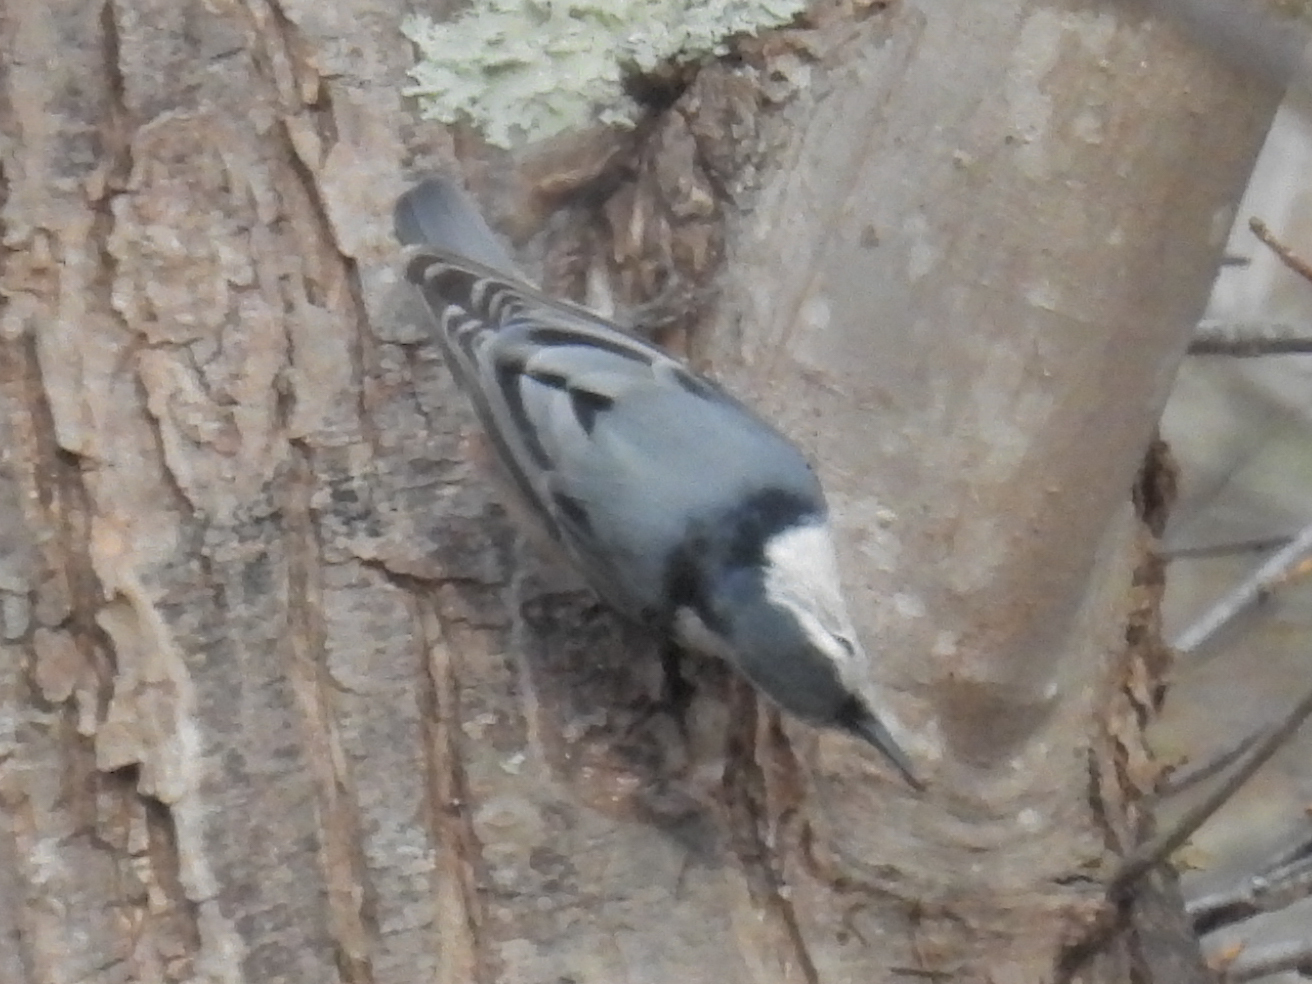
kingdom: Animalia
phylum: Chordata
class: Aves
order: Passeriformes
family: Sittidae
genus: Sitta
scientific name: Sitta carolinensis
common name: White-breasted nuthatch
